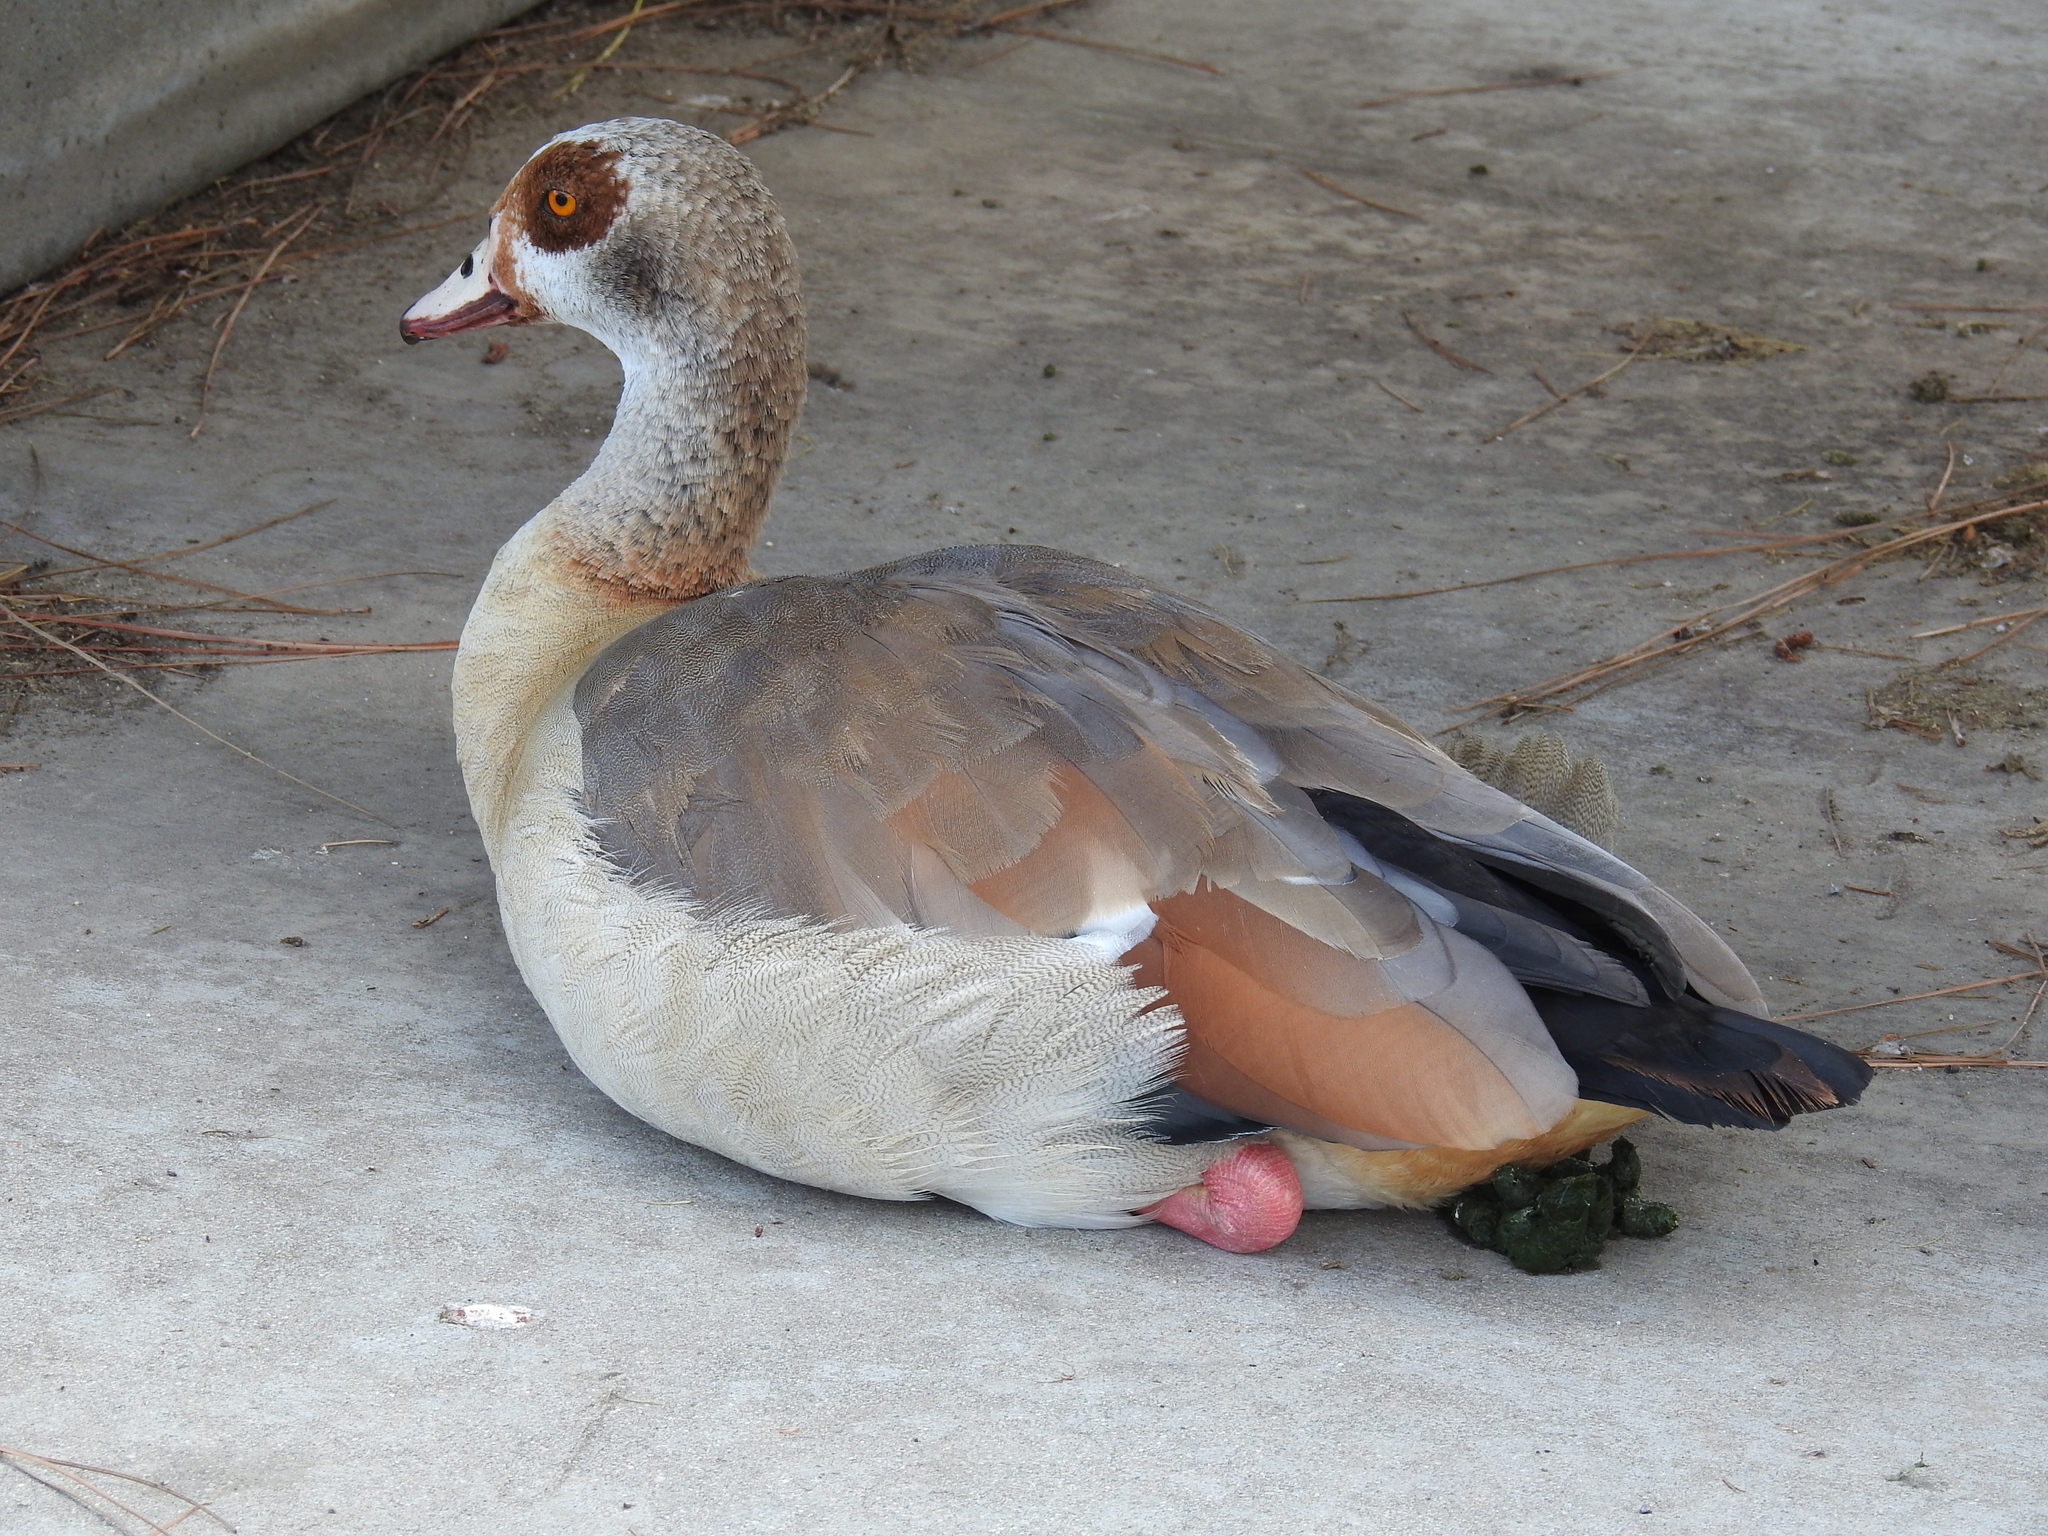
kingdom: Animalia
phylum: Chordata
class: Aves
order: Anseriformes
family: Anatidae
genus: Alopochen
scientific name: Alopochen aegyptiaca
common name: Egyptian goose
